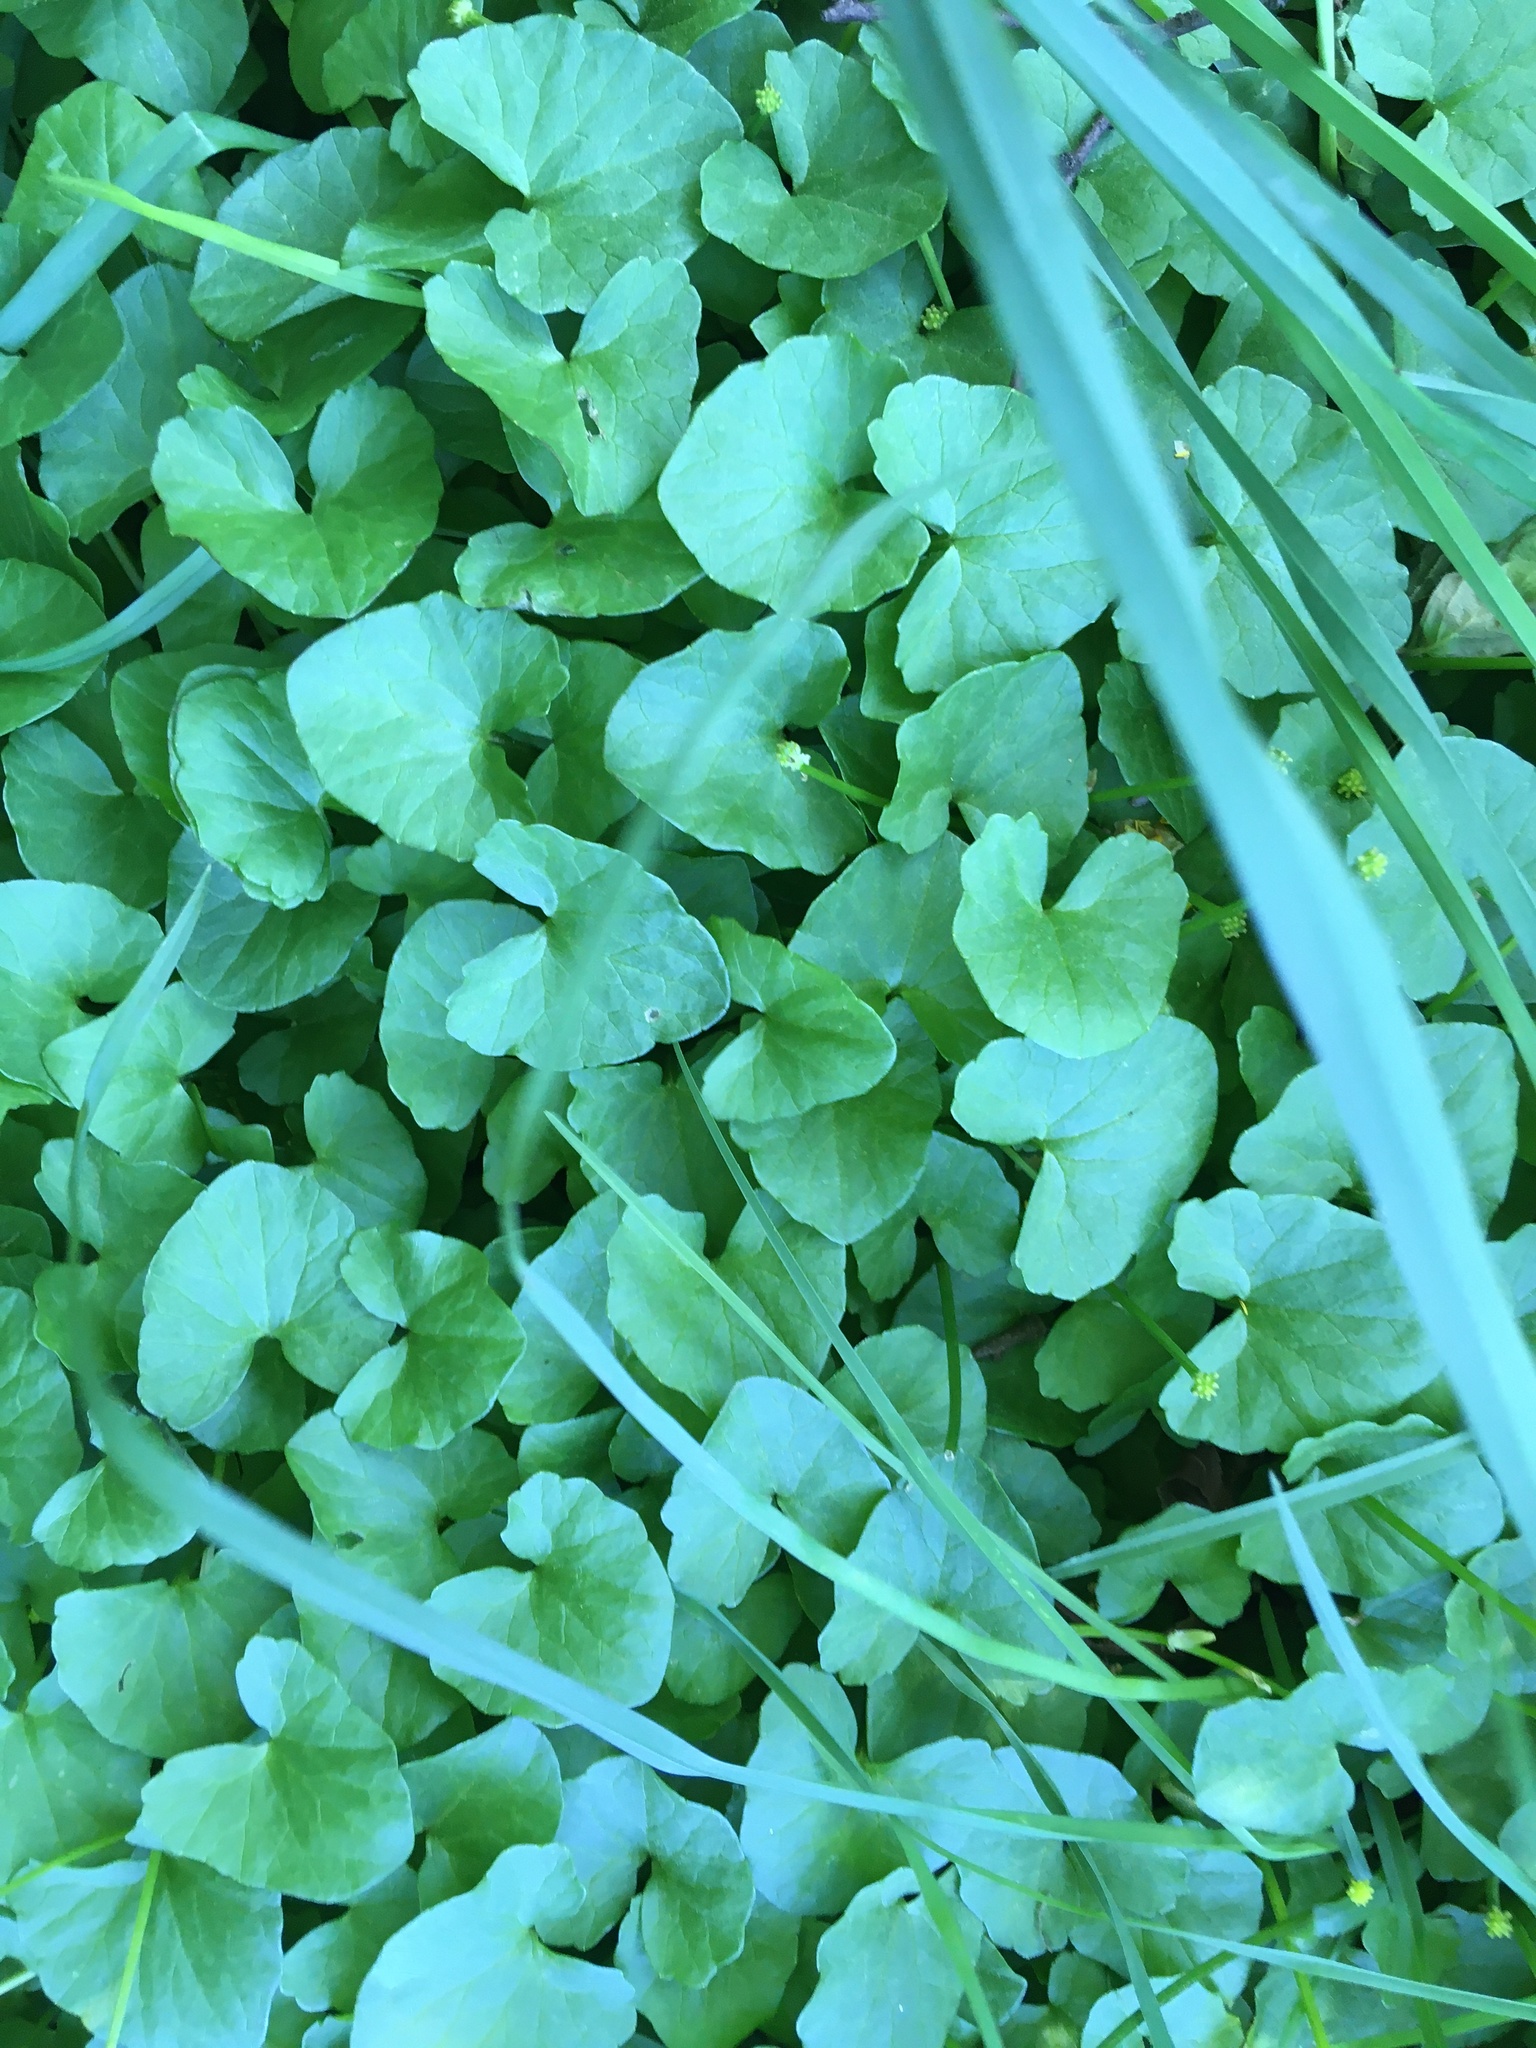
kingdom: Plantae
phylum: Tracheophyta
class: Magnoliopsida
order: Ranunculales
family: Ranunculaceae
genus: Ficaria
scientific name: Ficaria verna
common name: Lesser celandine
